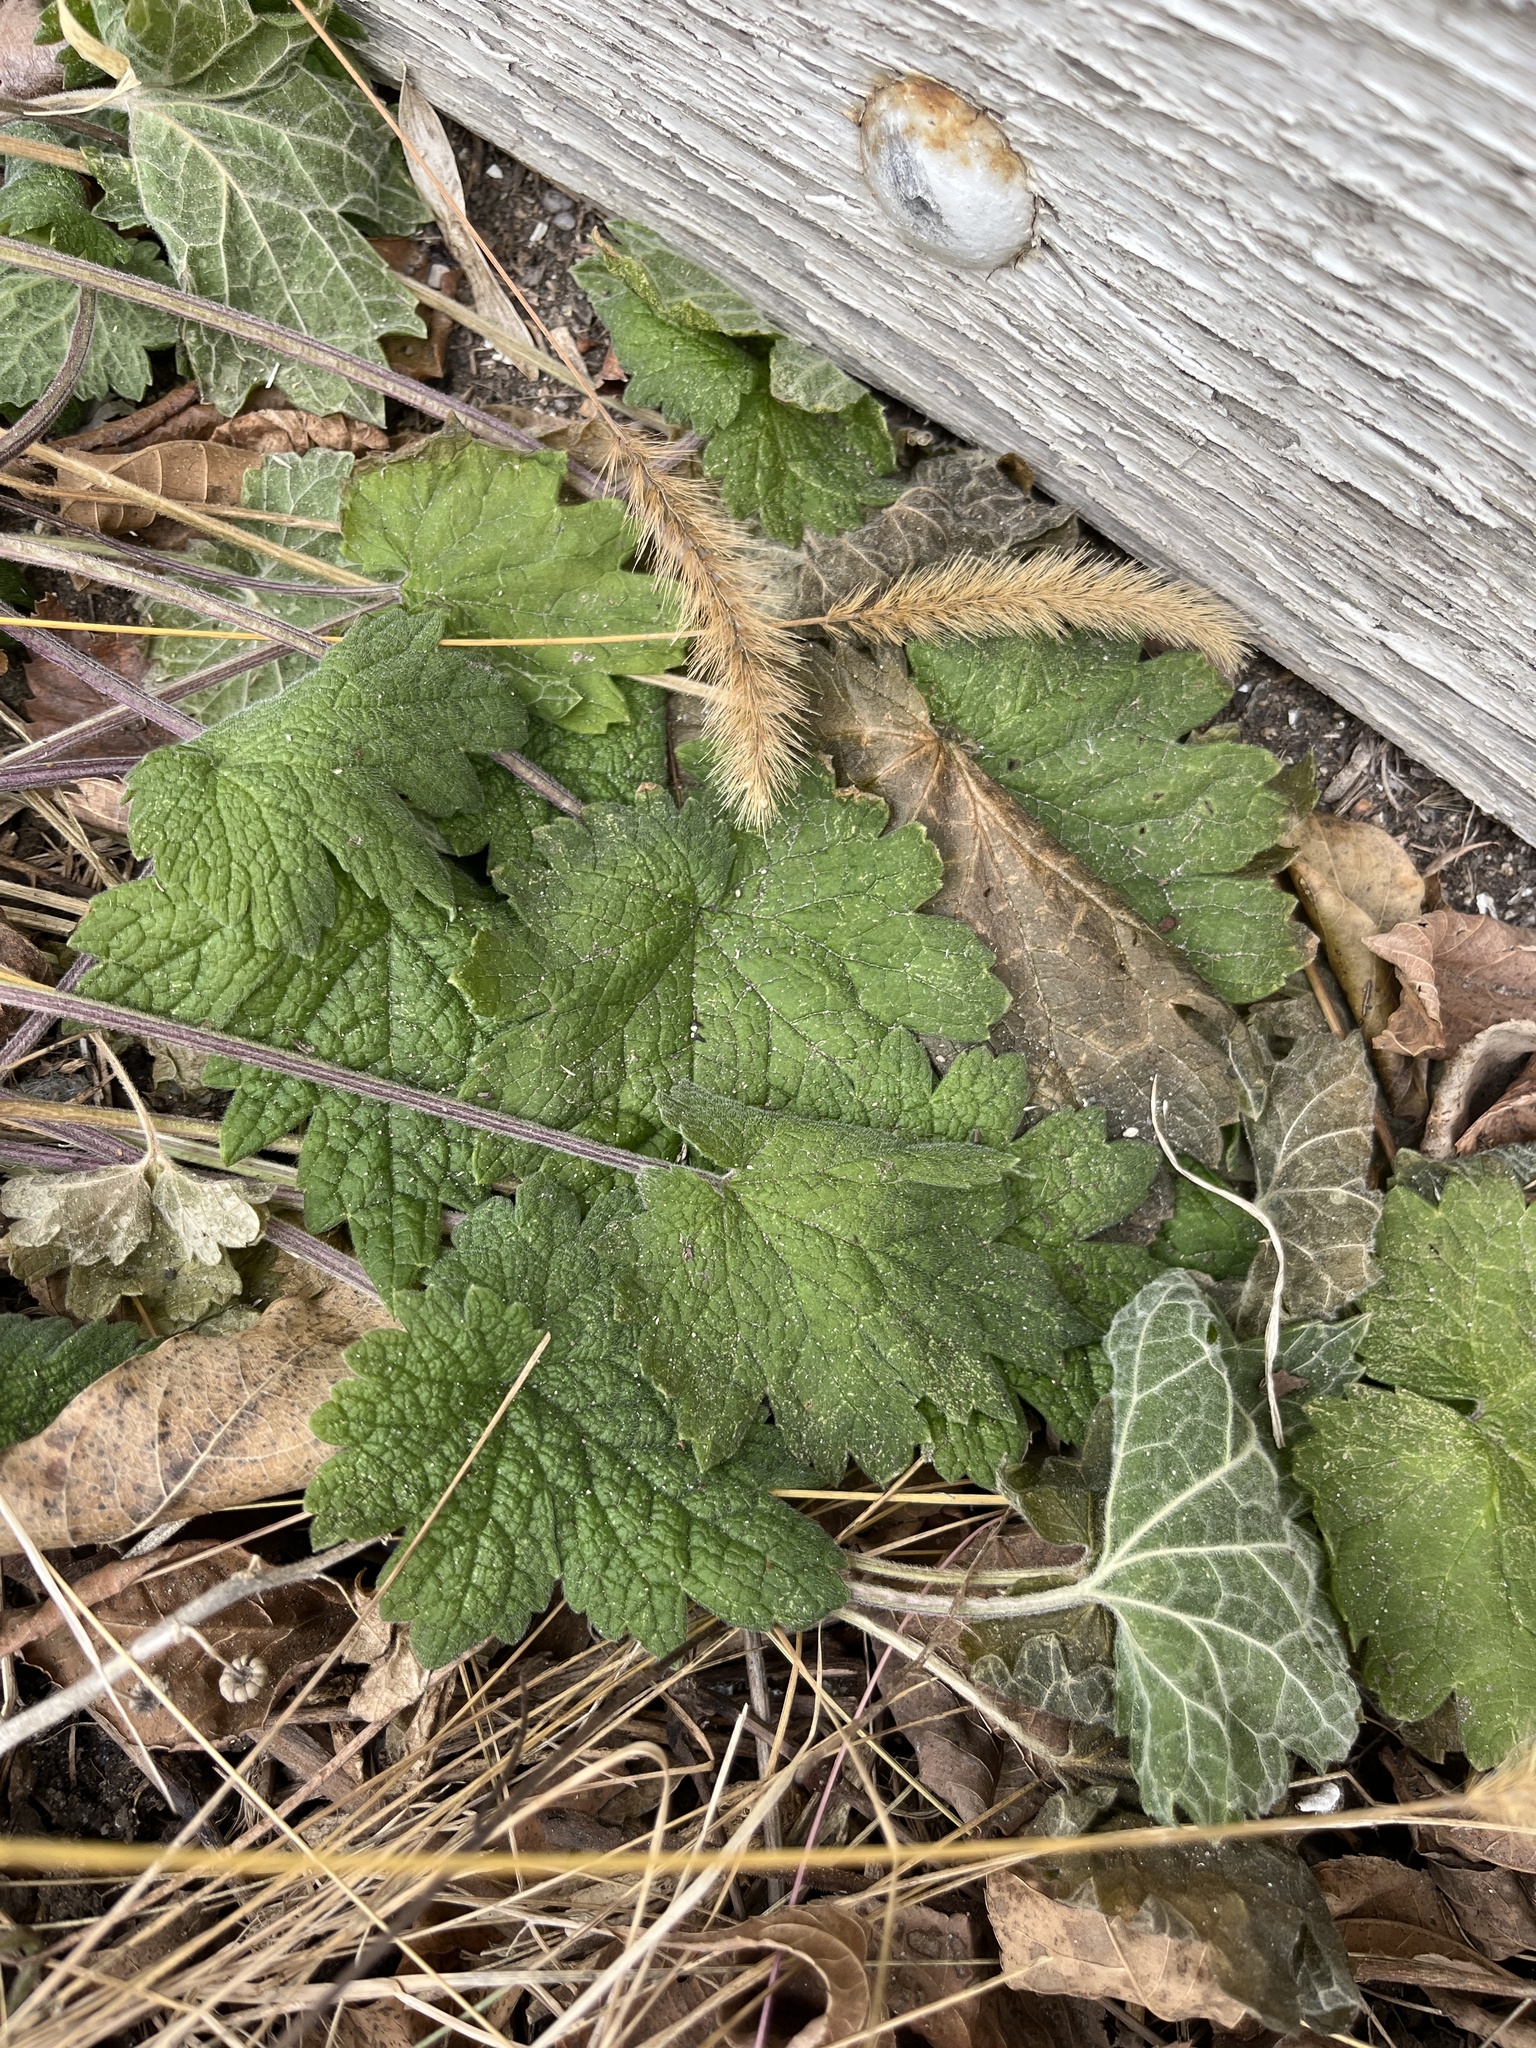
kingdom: Plantae
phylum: Tracheophyta
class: Magnoliopsida
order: Lamiales
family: Lamiaceae
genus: Leonurus
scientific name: Leonurus cardiaca
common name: Motherwort
